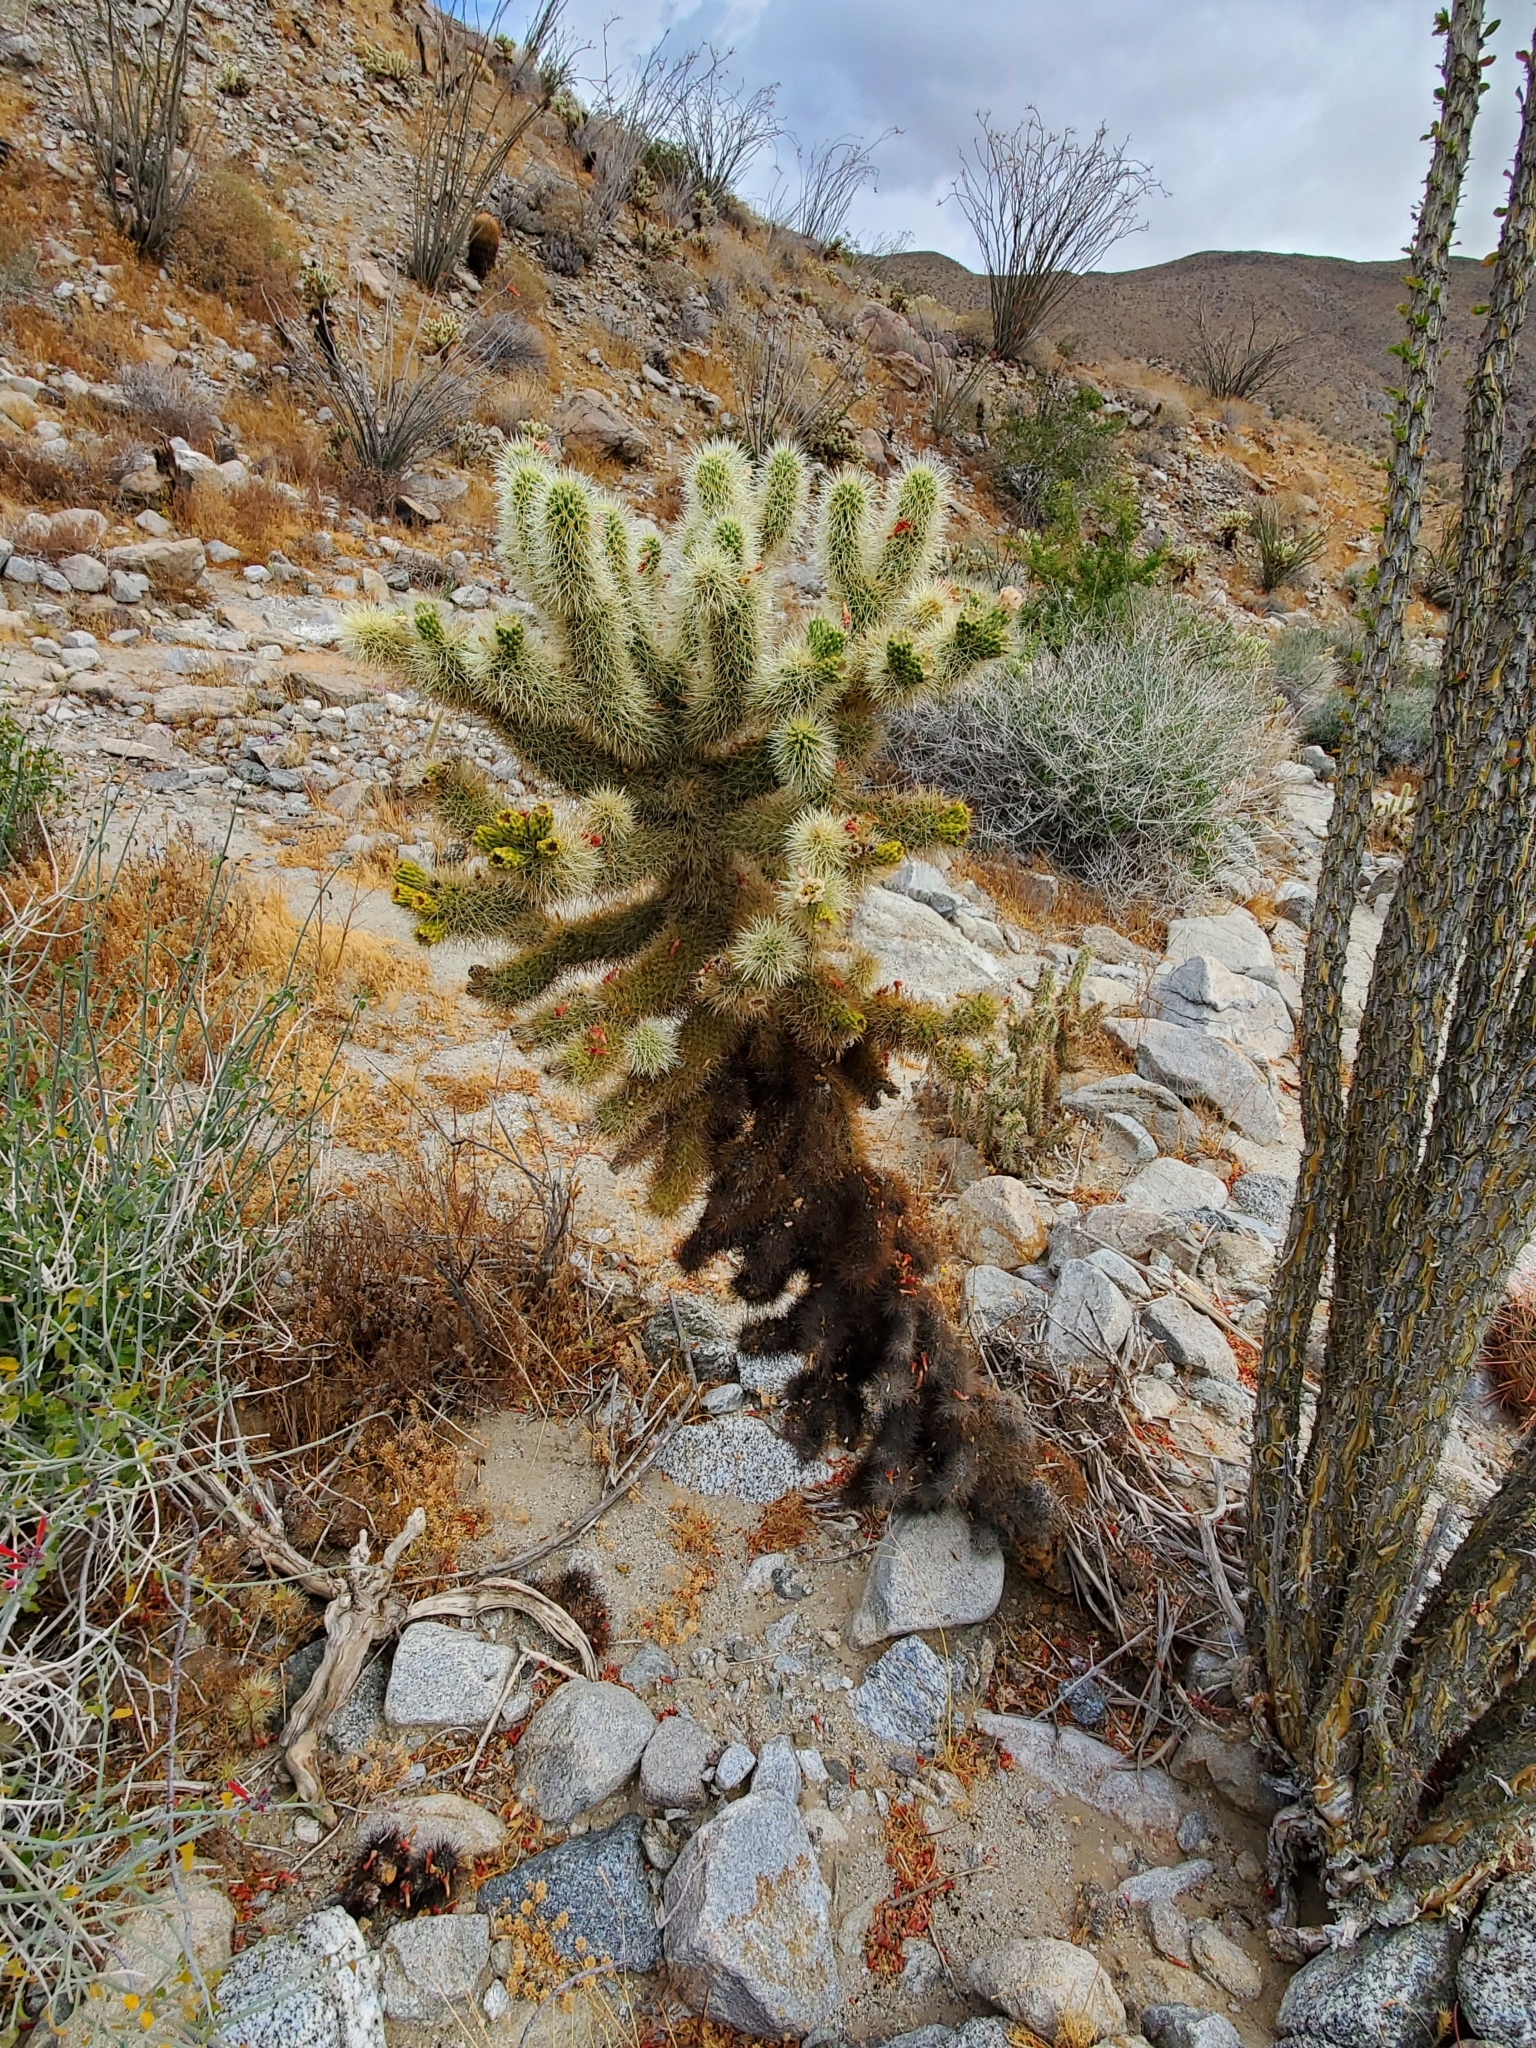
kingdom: Plantae
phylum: Tracheophyta
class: Magnoliopsida
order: Caryophyllales
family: Cactaceae
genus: Cylindropuntia
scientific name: Cylindropuntia fosbergii
